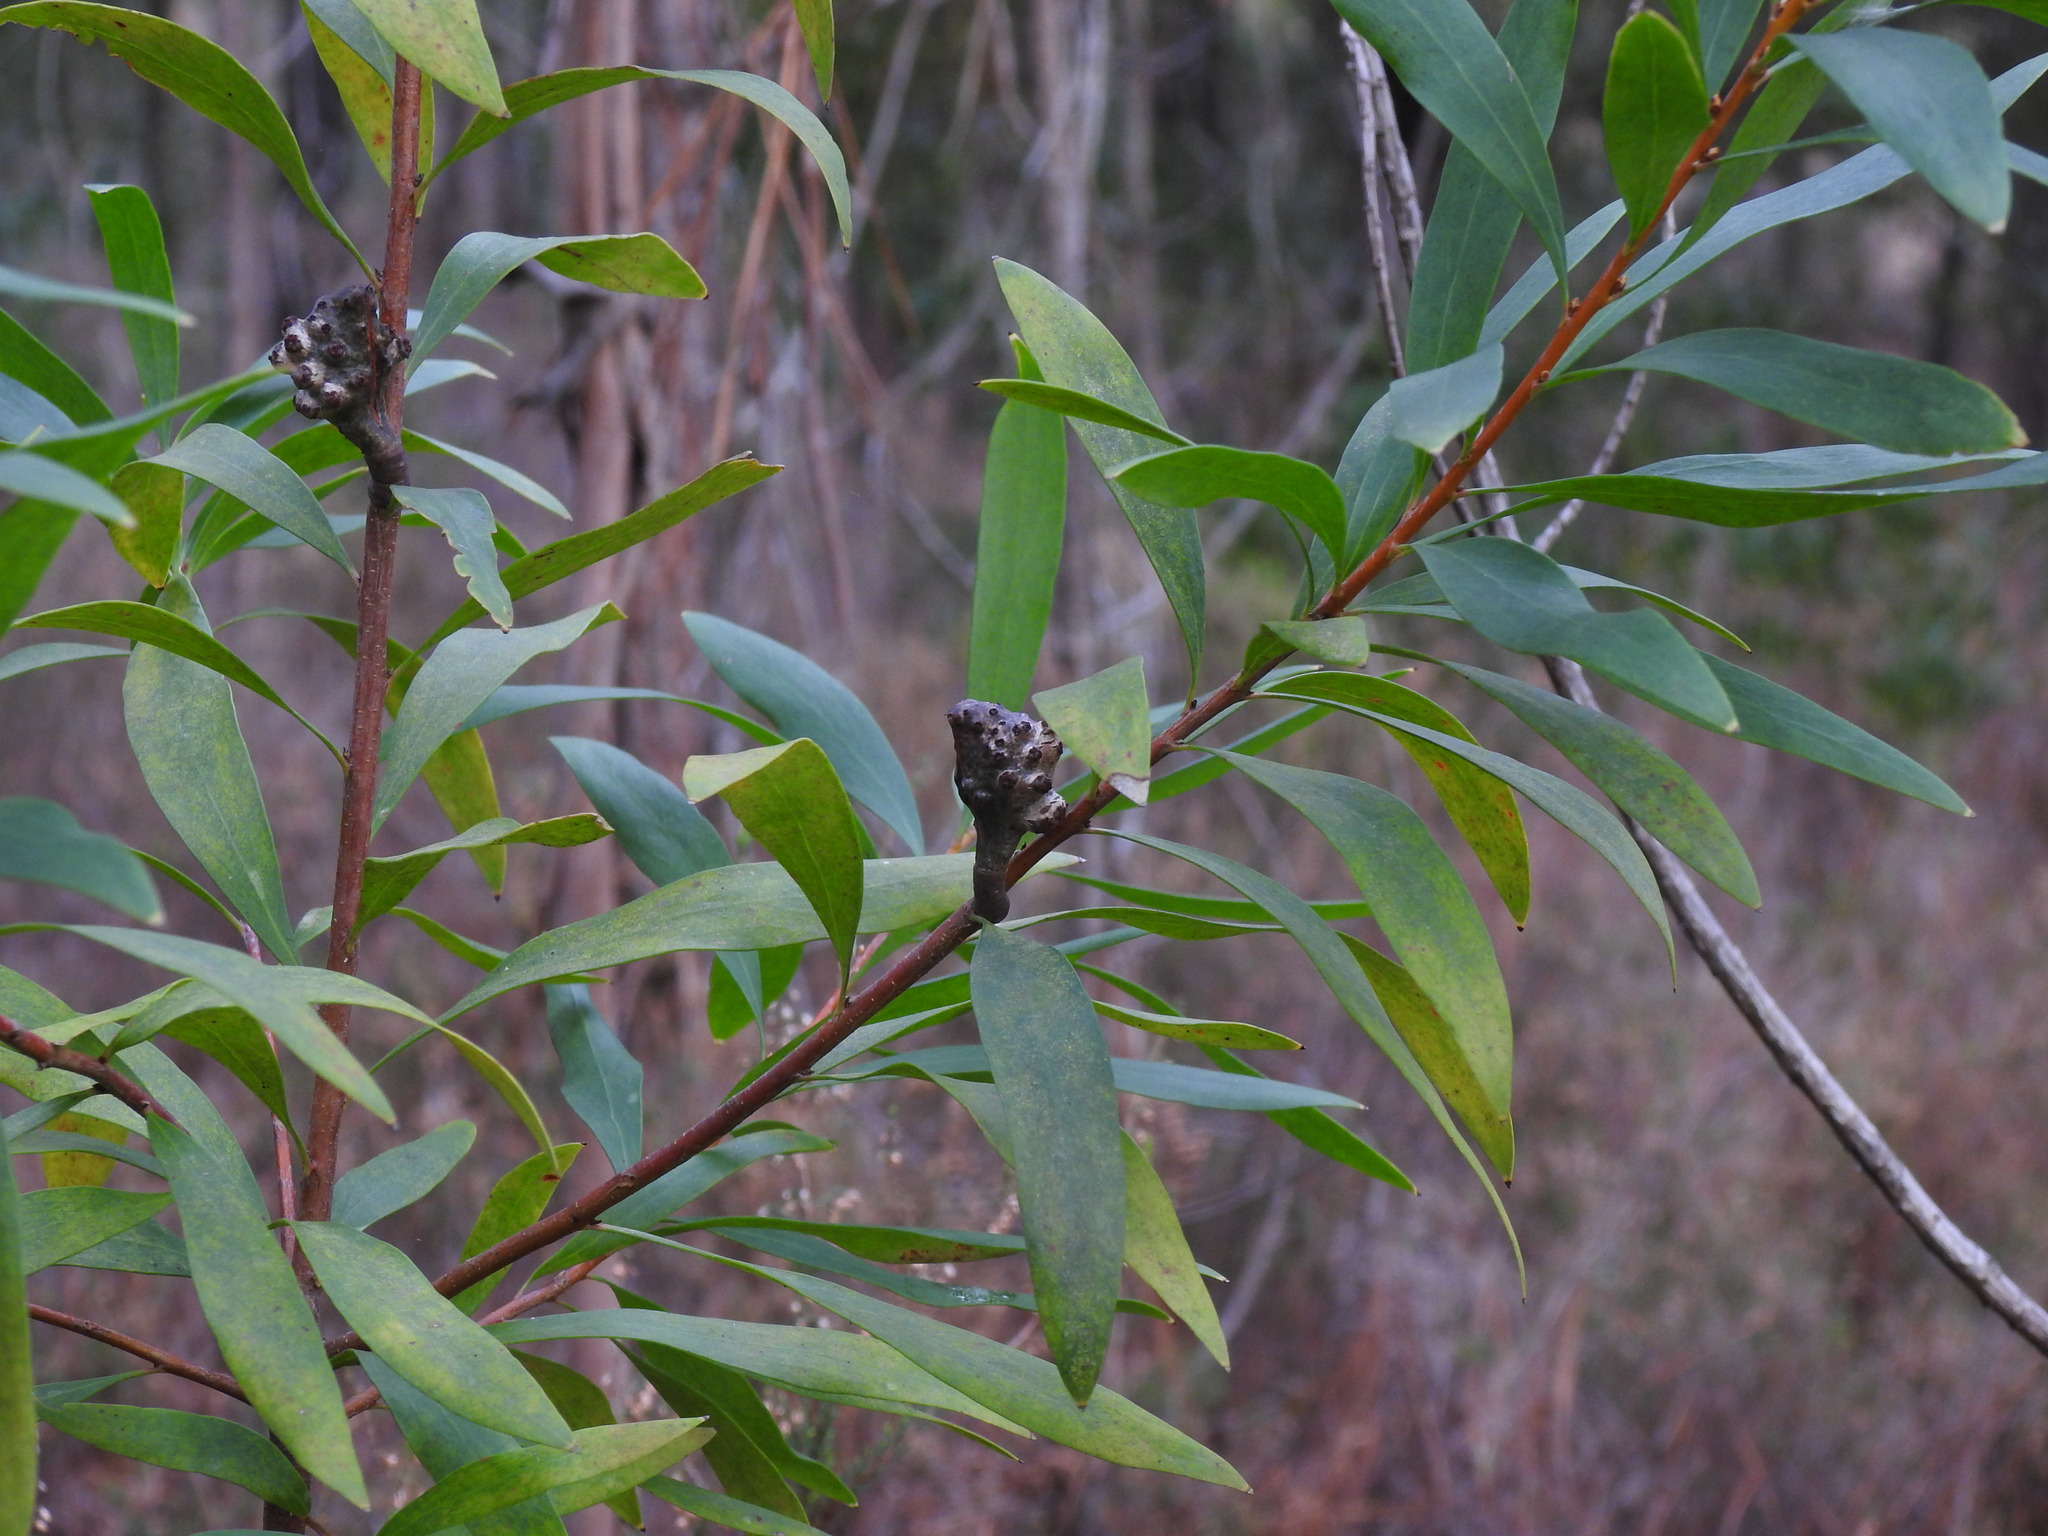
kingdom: Plantae
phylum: Tracheophyta
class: Magnoliopsida
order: Proteales
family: Proteaceae
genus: Hakea
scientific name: Hakea salicifolia
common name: Willow hakea
